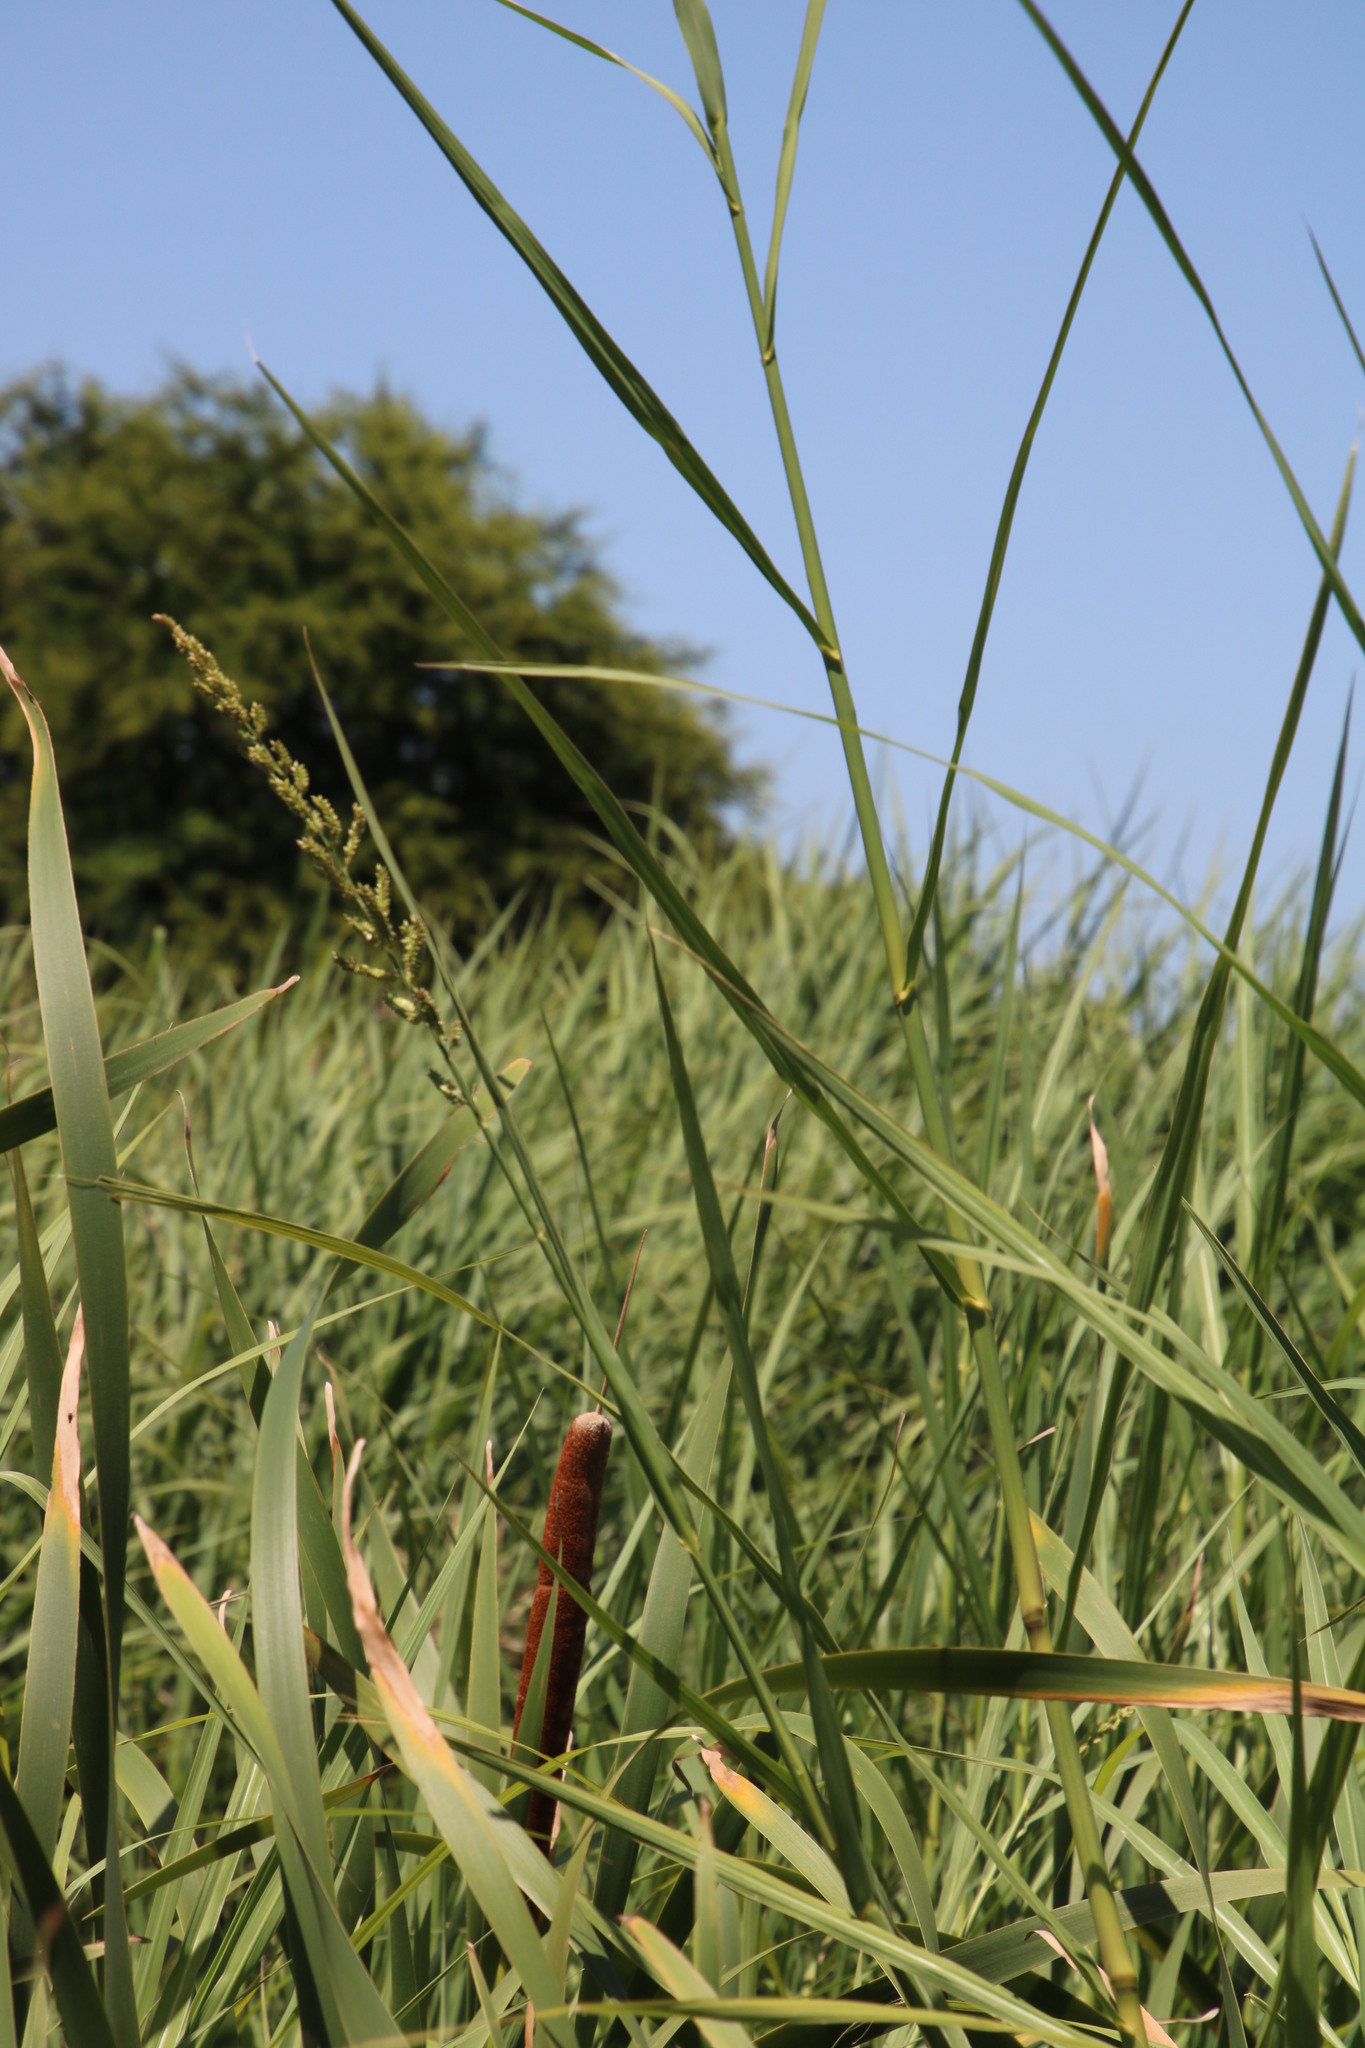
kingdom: Plantae
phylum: Tracheophyta
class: Liliopsida
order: Poales
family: Poaceae
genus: Echinochloa
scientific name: Echinochloa pyramidalis
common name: Antelope grass
